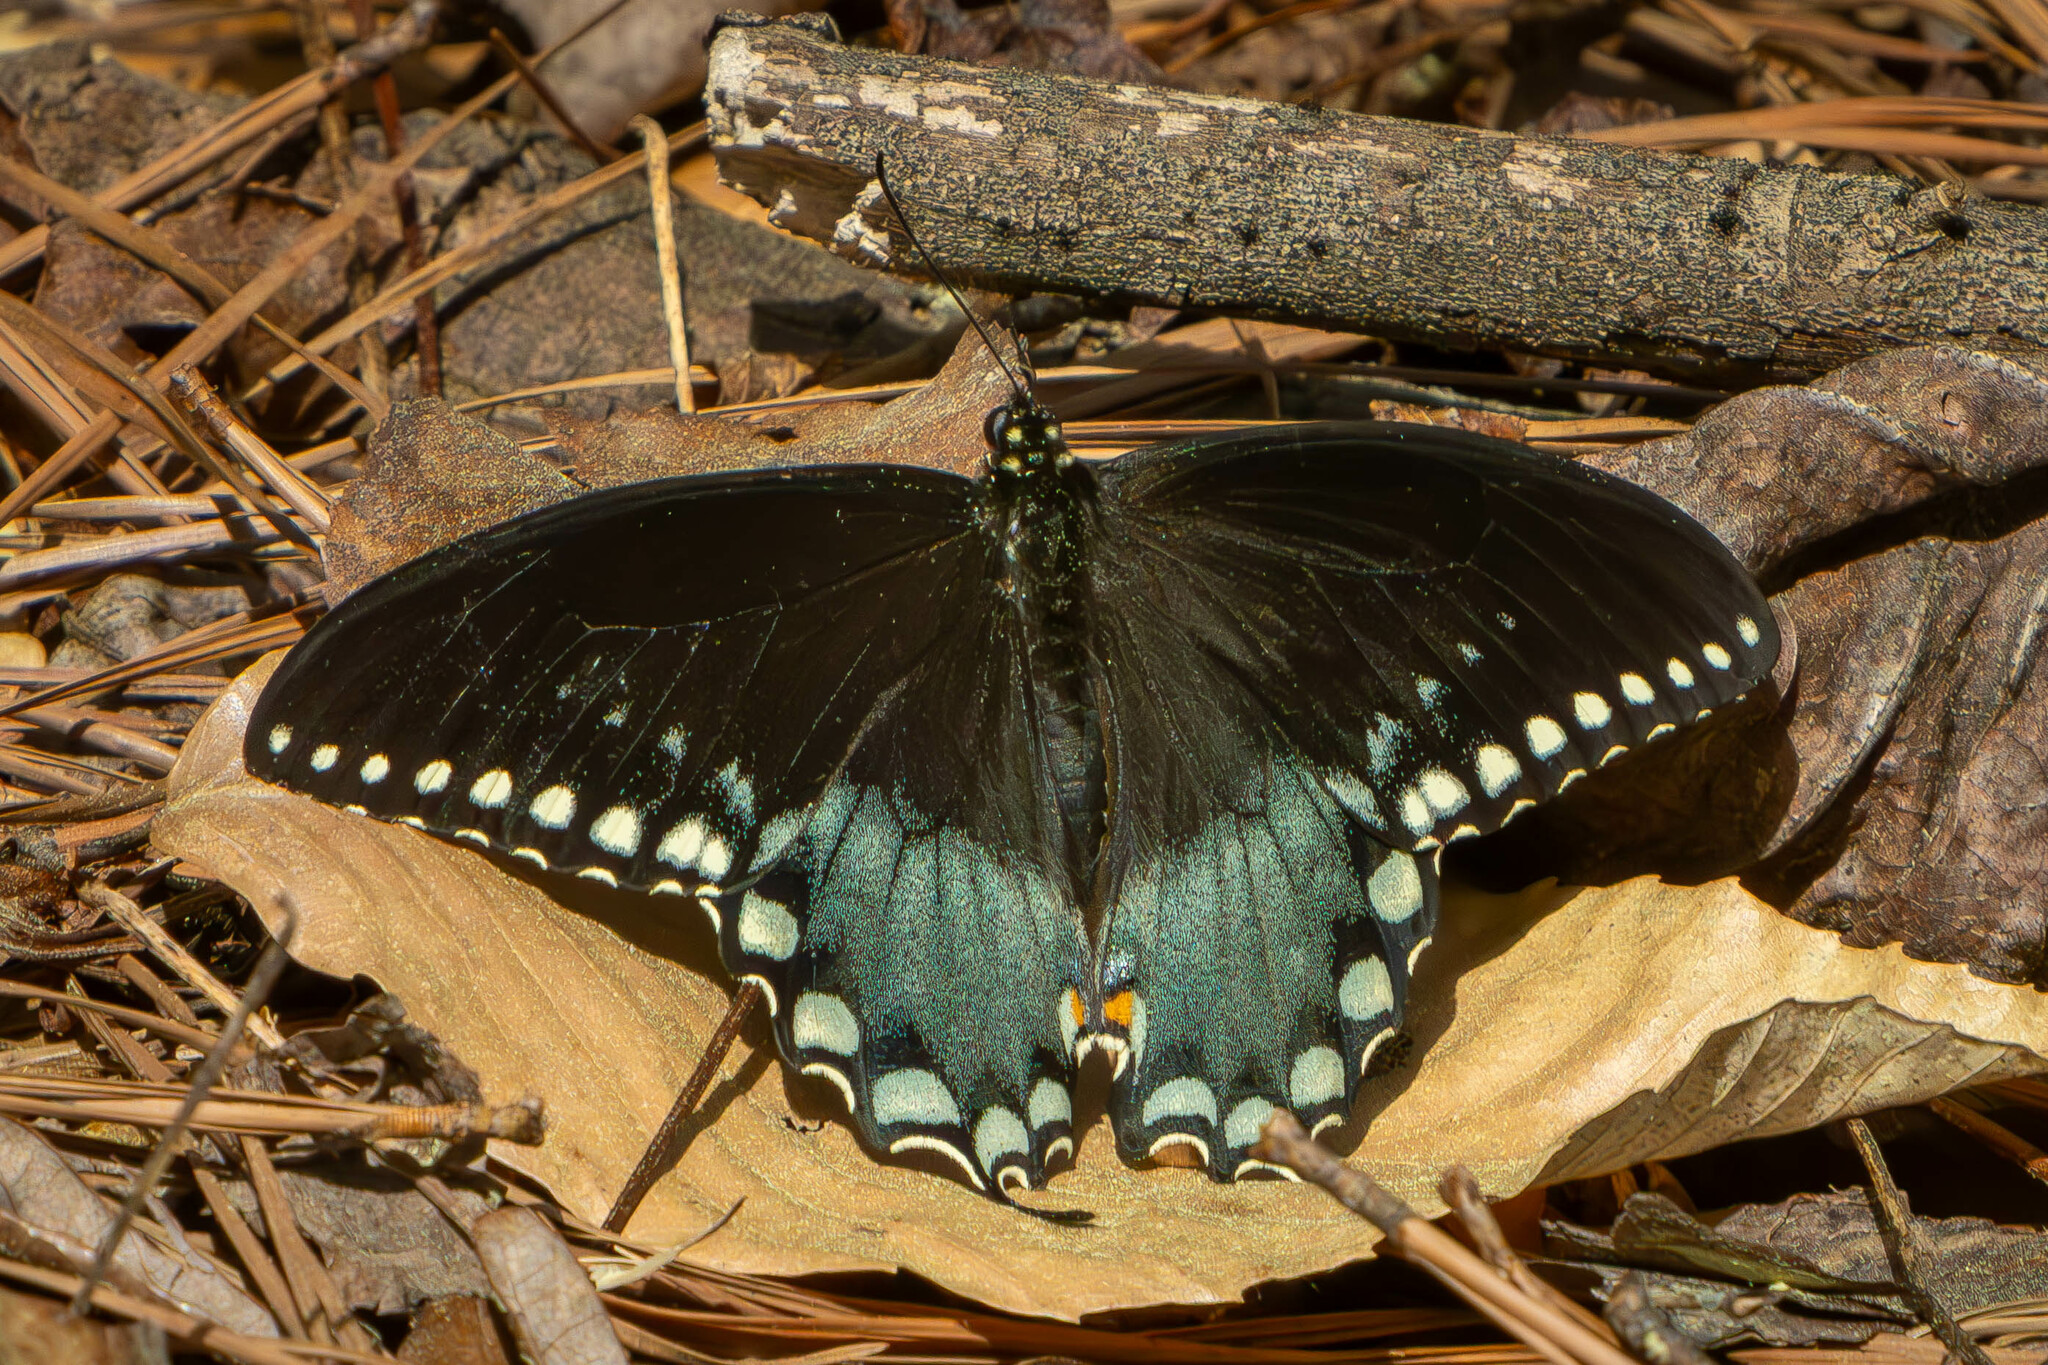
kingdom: Animalia
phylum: Arthropoda
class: Insecta
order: Lepidoptera
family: Papilionidae
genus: Papilio
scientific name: Papilio troilus
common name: Spicebush swallowtail
